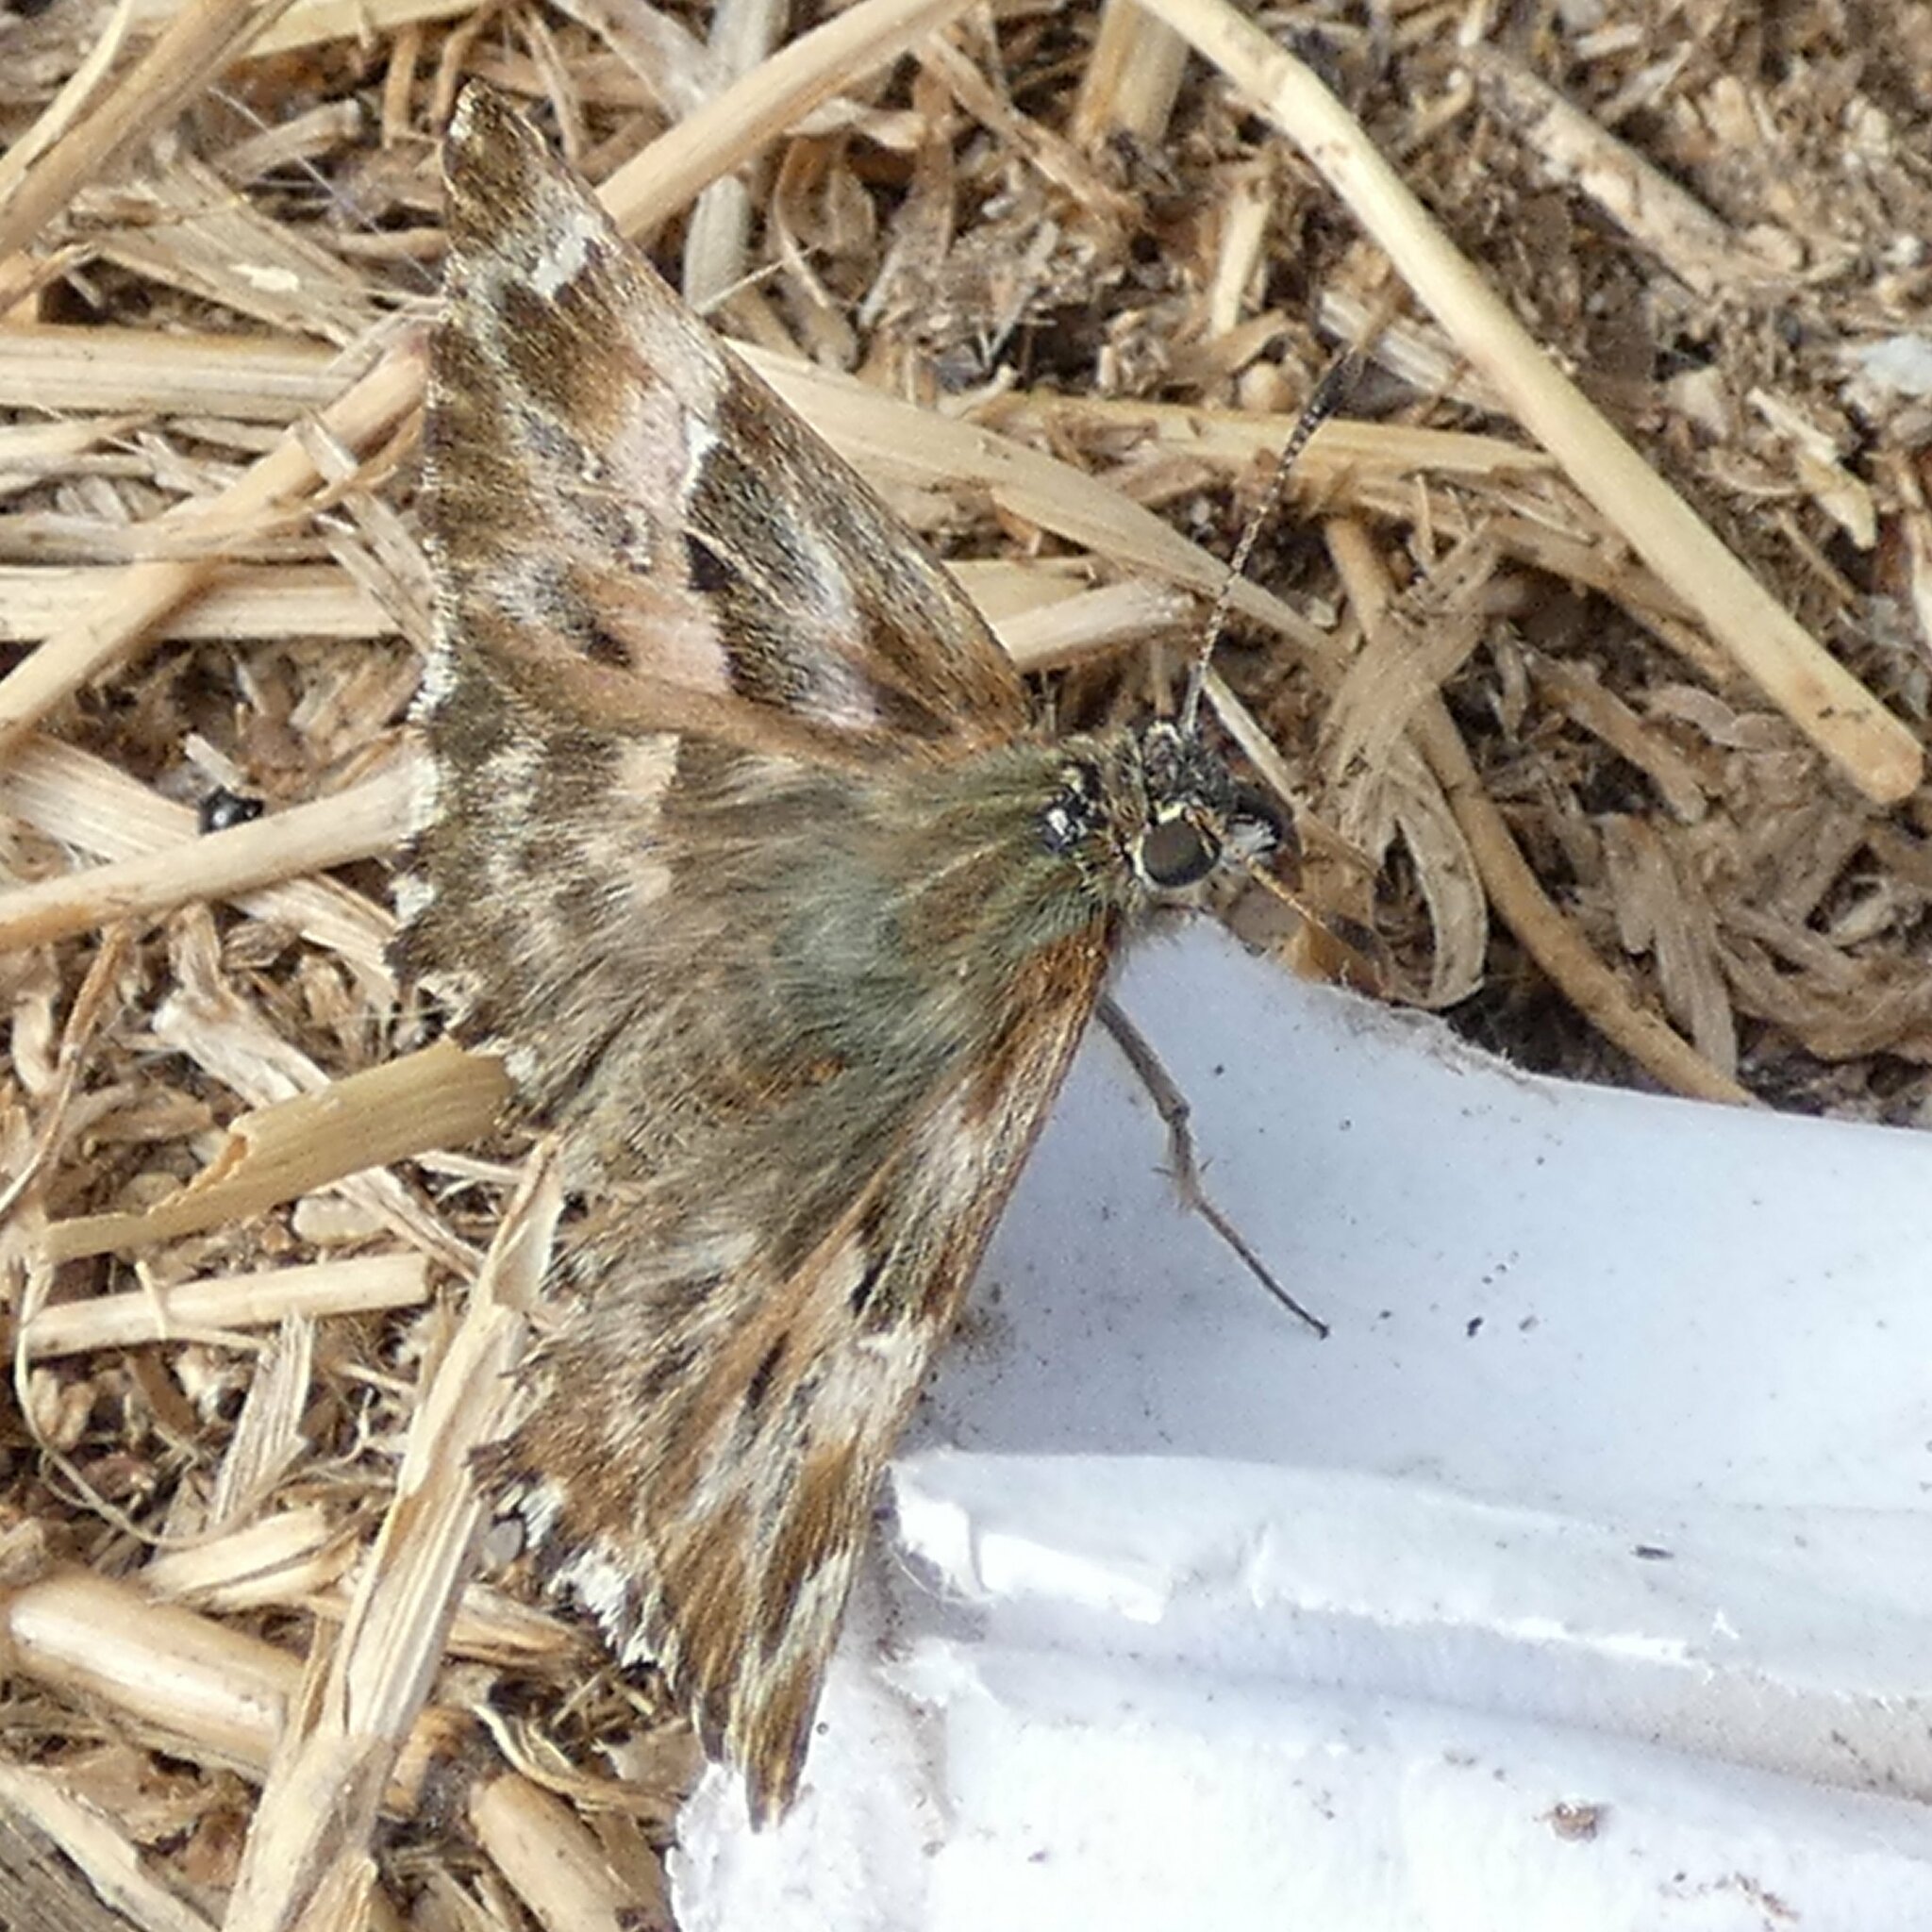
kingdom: Animalia
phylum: Arthropoda
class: Insecta
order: Lepidoptera
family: Hesperiidae
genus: Carcharodus
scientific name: Carcharodus alceae
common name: Mallow skipper
